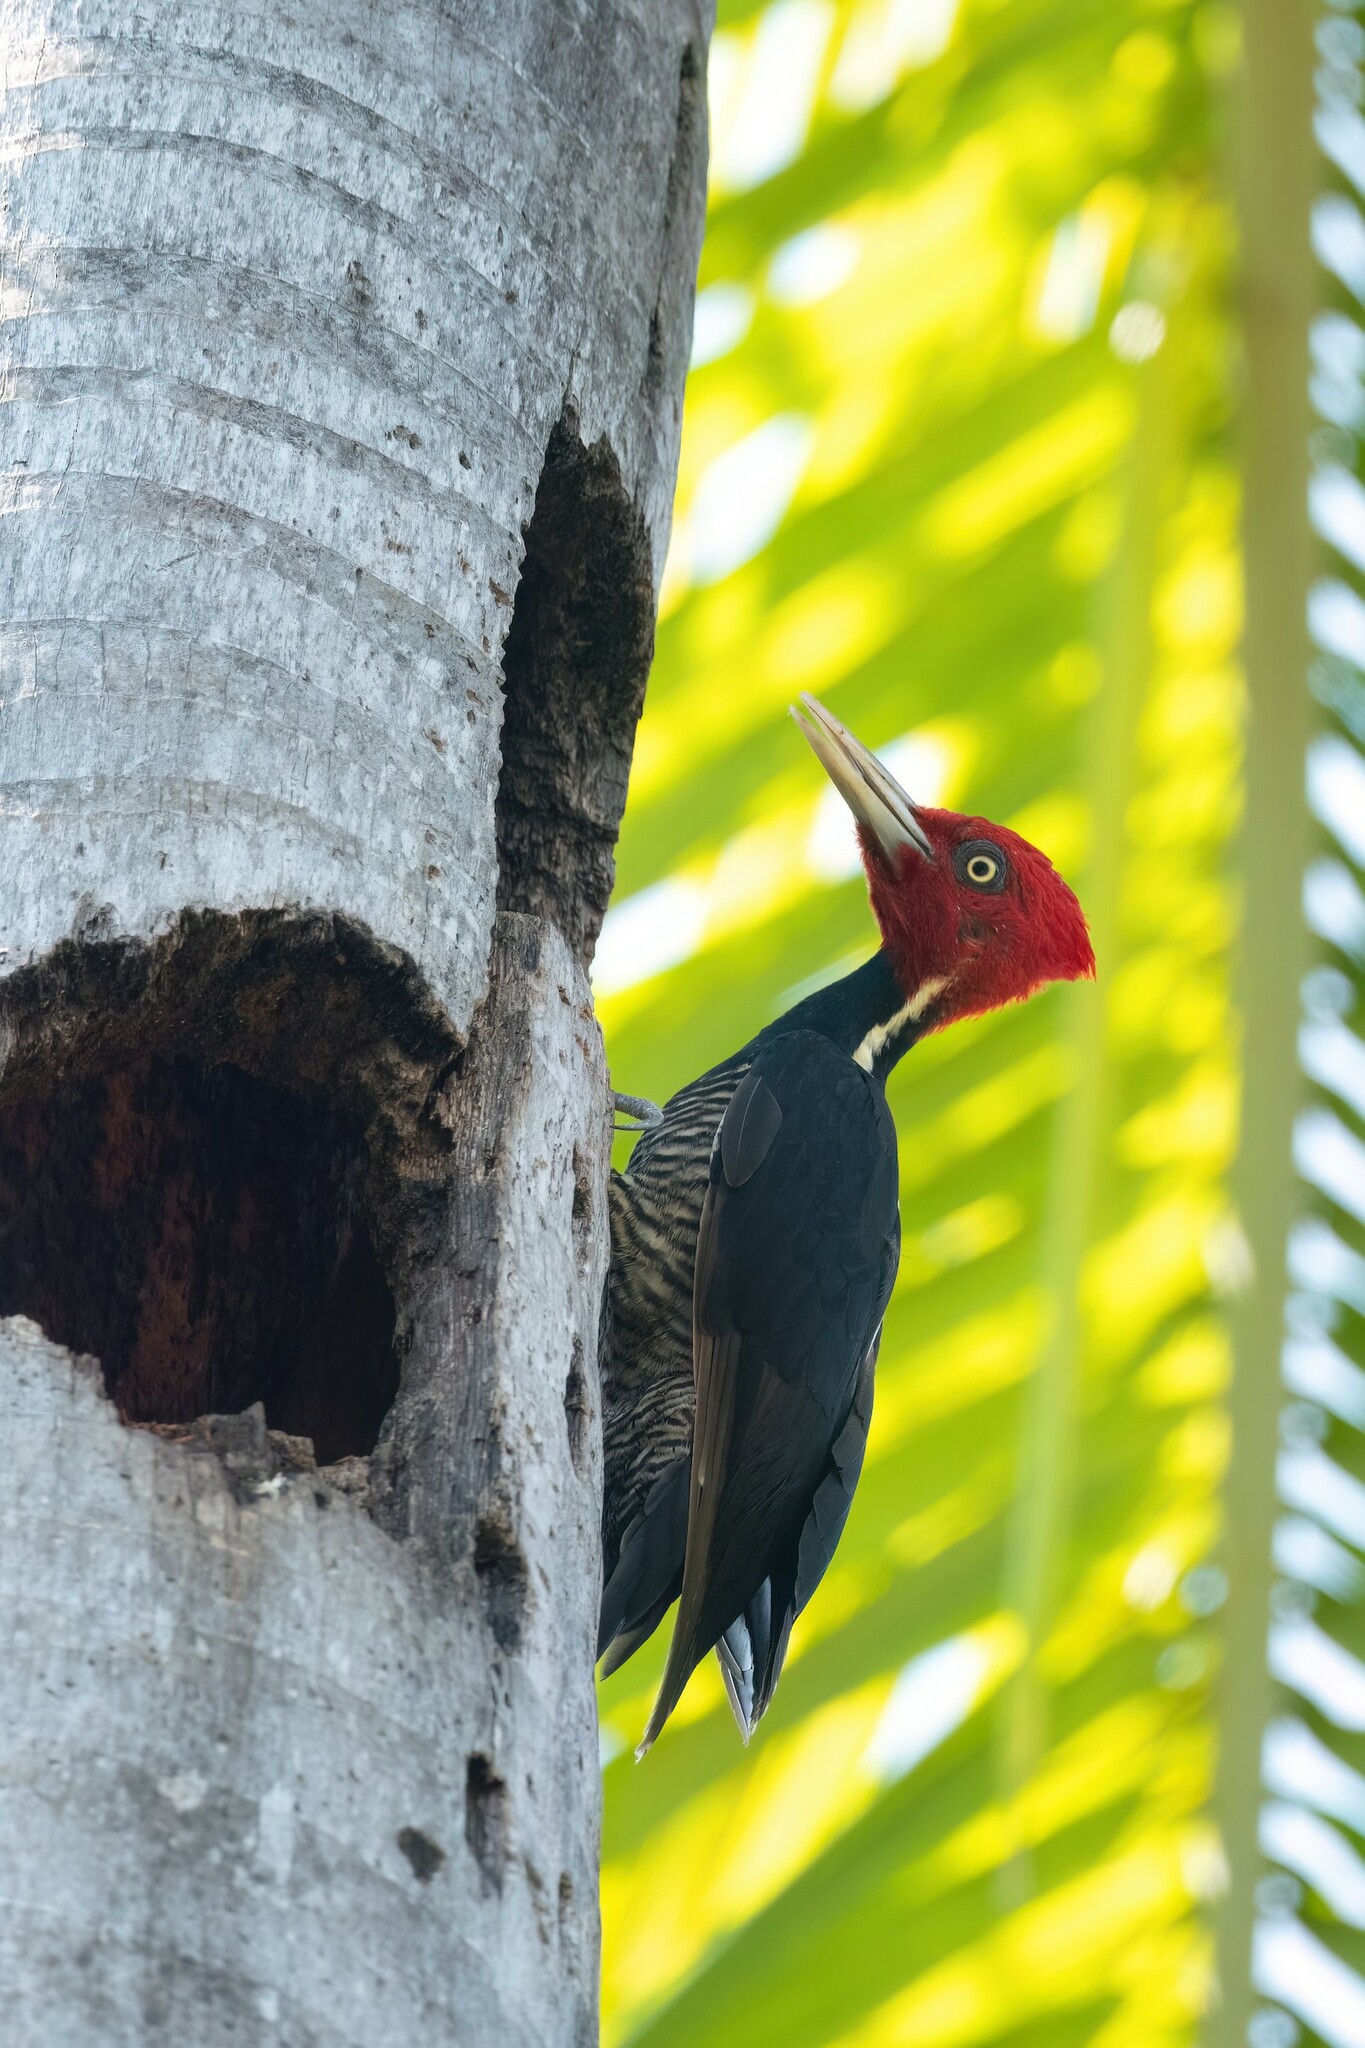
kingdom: Animalia
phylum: Chordata
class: Aves
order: Piciformes
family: Picidae
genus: Campephilus
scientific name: Campephilus guatemalensis
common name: Pale-billed woodpecker
